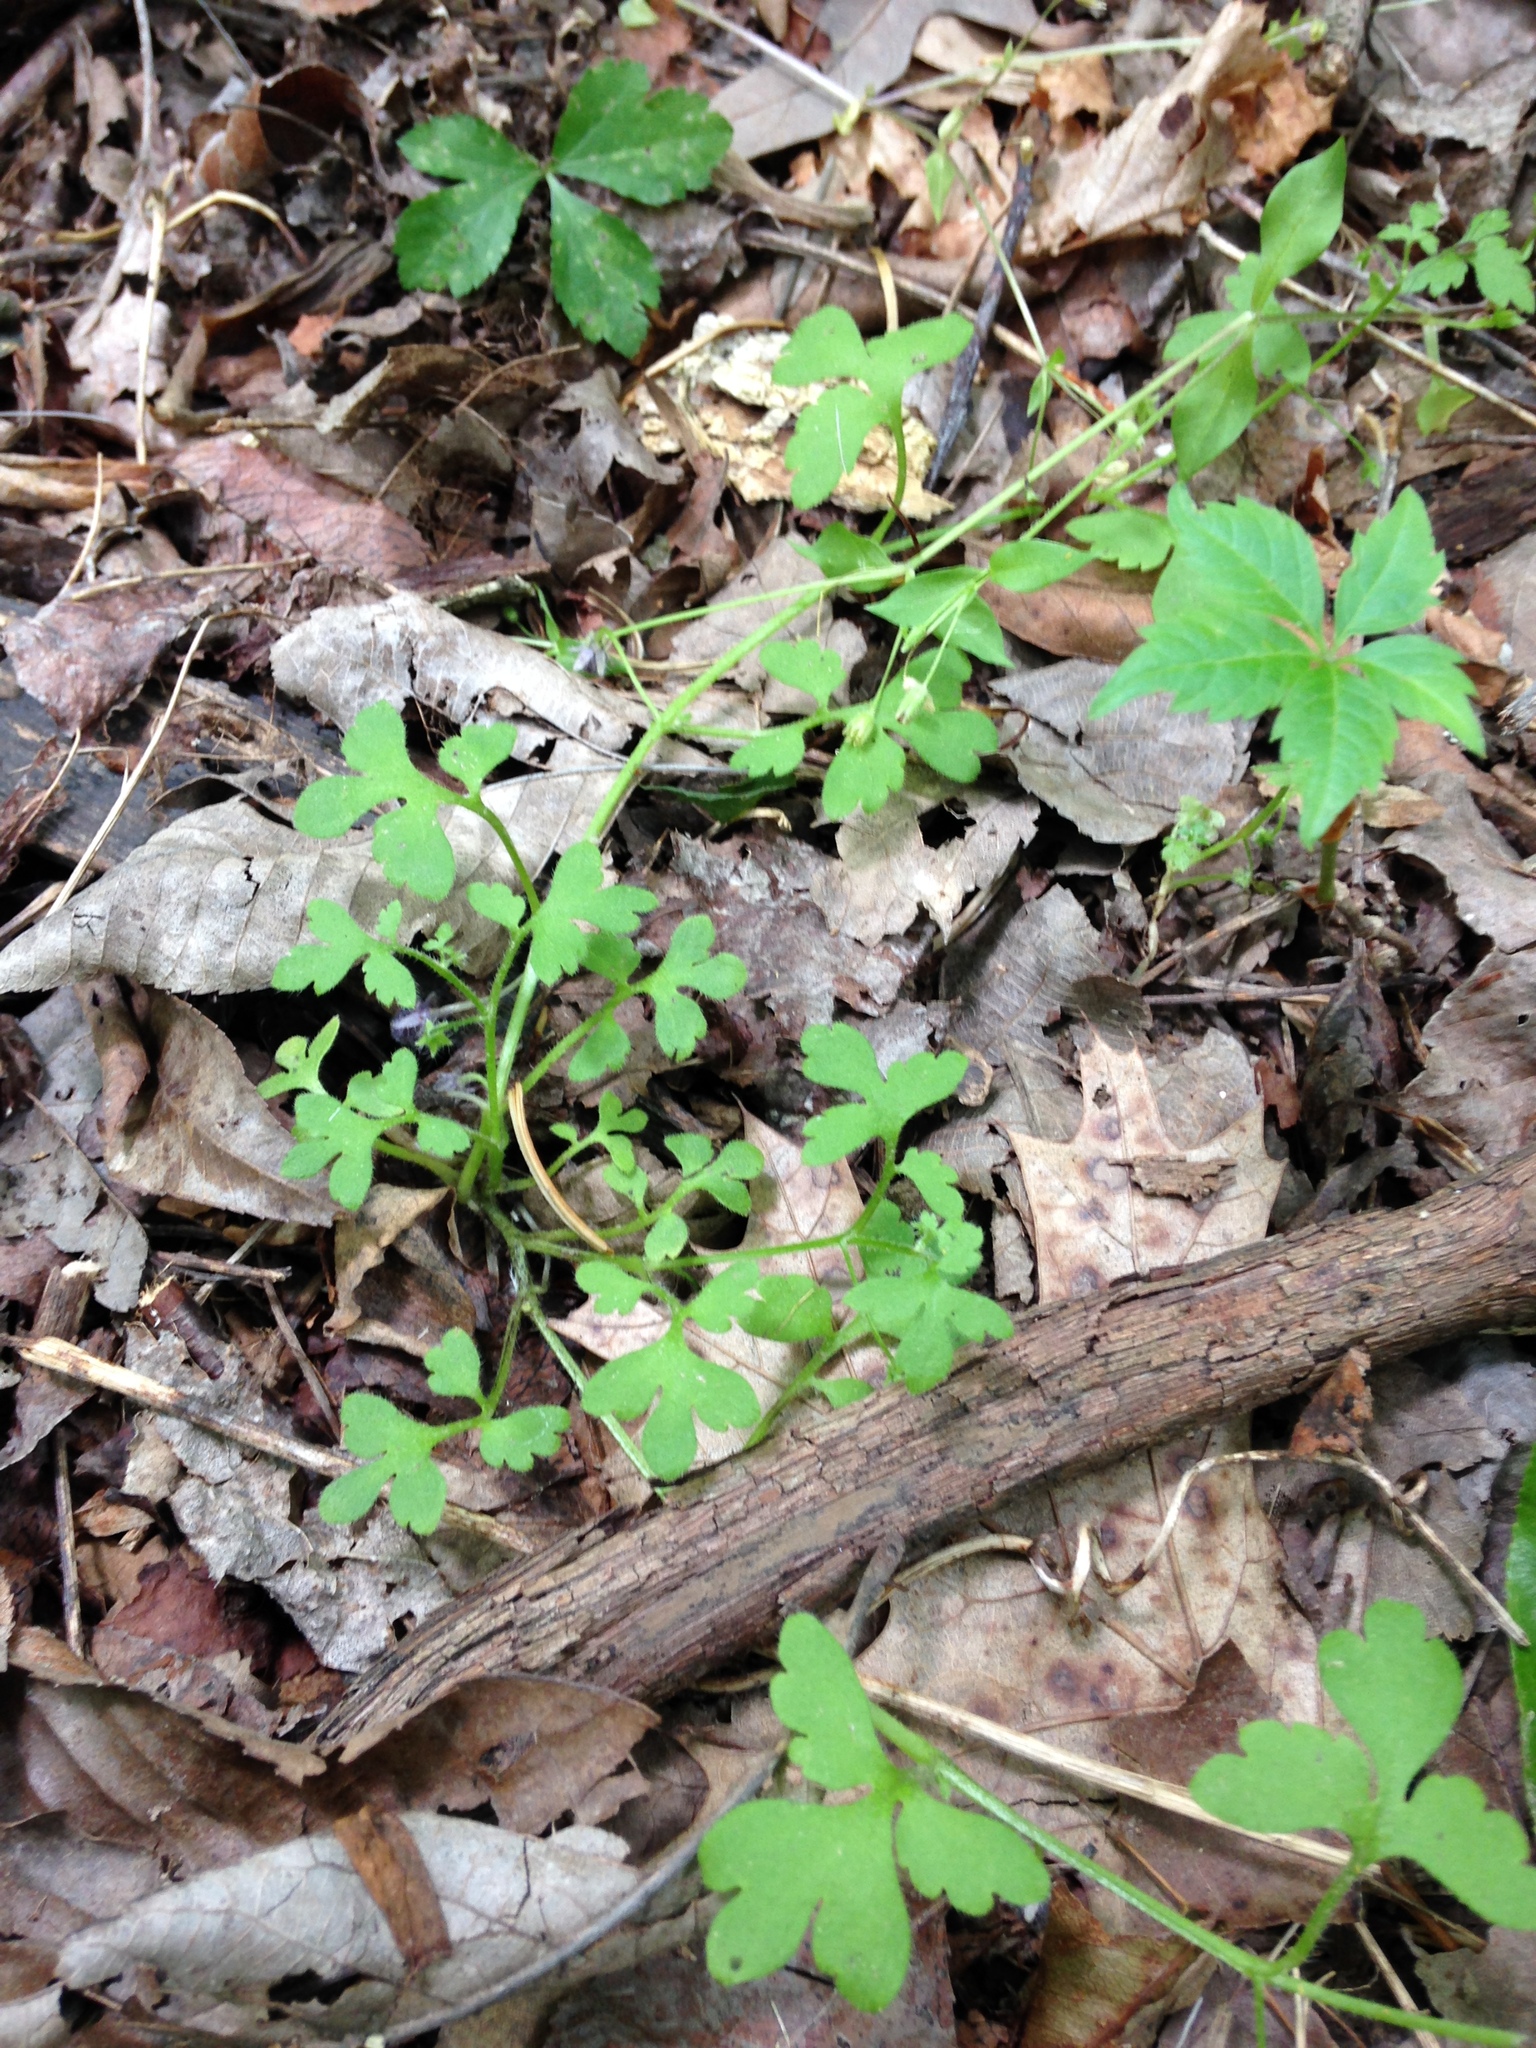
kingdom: Plantae
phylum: Tracheophyta
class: Magnoliopsida
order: Boraginales
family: Hydrophyllaceae
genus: Nemophila
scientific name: Nemophila aphylla
